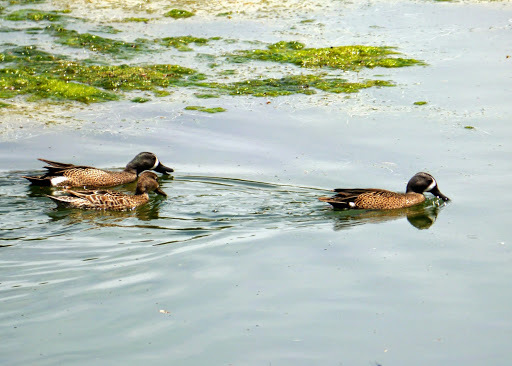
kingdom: Animalia
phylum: Chordata
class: Aves
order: Anseriformes
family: Anatidae
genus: Spatula
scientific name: Spatula discors
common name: Blue-winged teal
